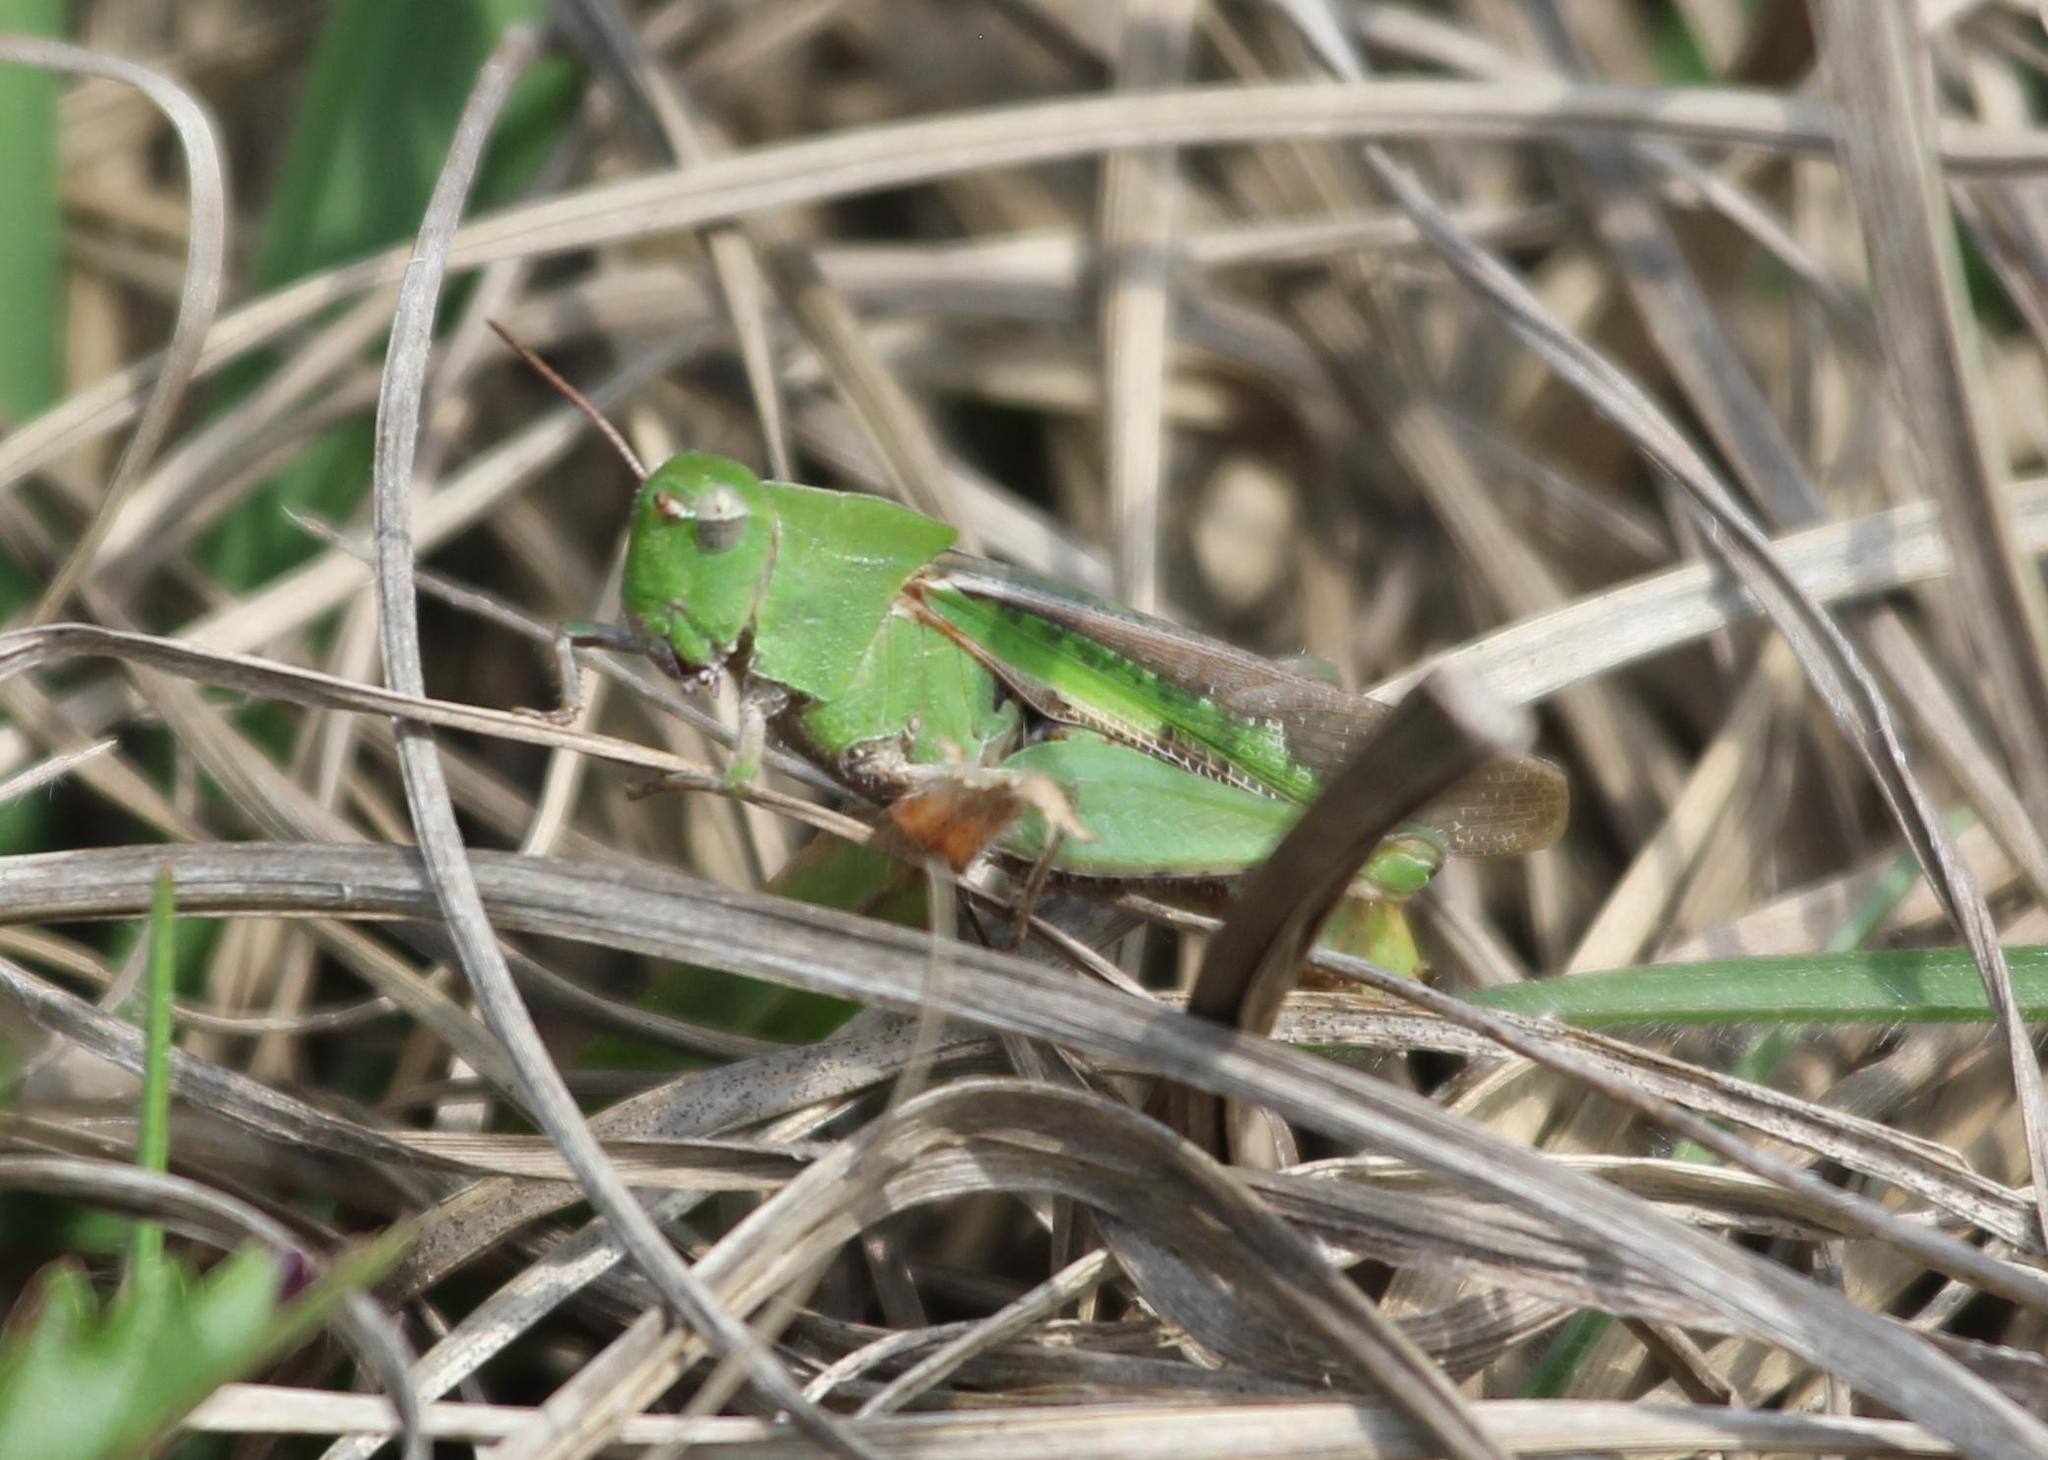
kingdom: Animalia
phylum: Arthropoda
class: Insecta
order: Orthoptera
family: Acrididae
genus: Chortophaga
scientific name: Chortophaga viridifasciata
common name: Green-striped grasshopper
